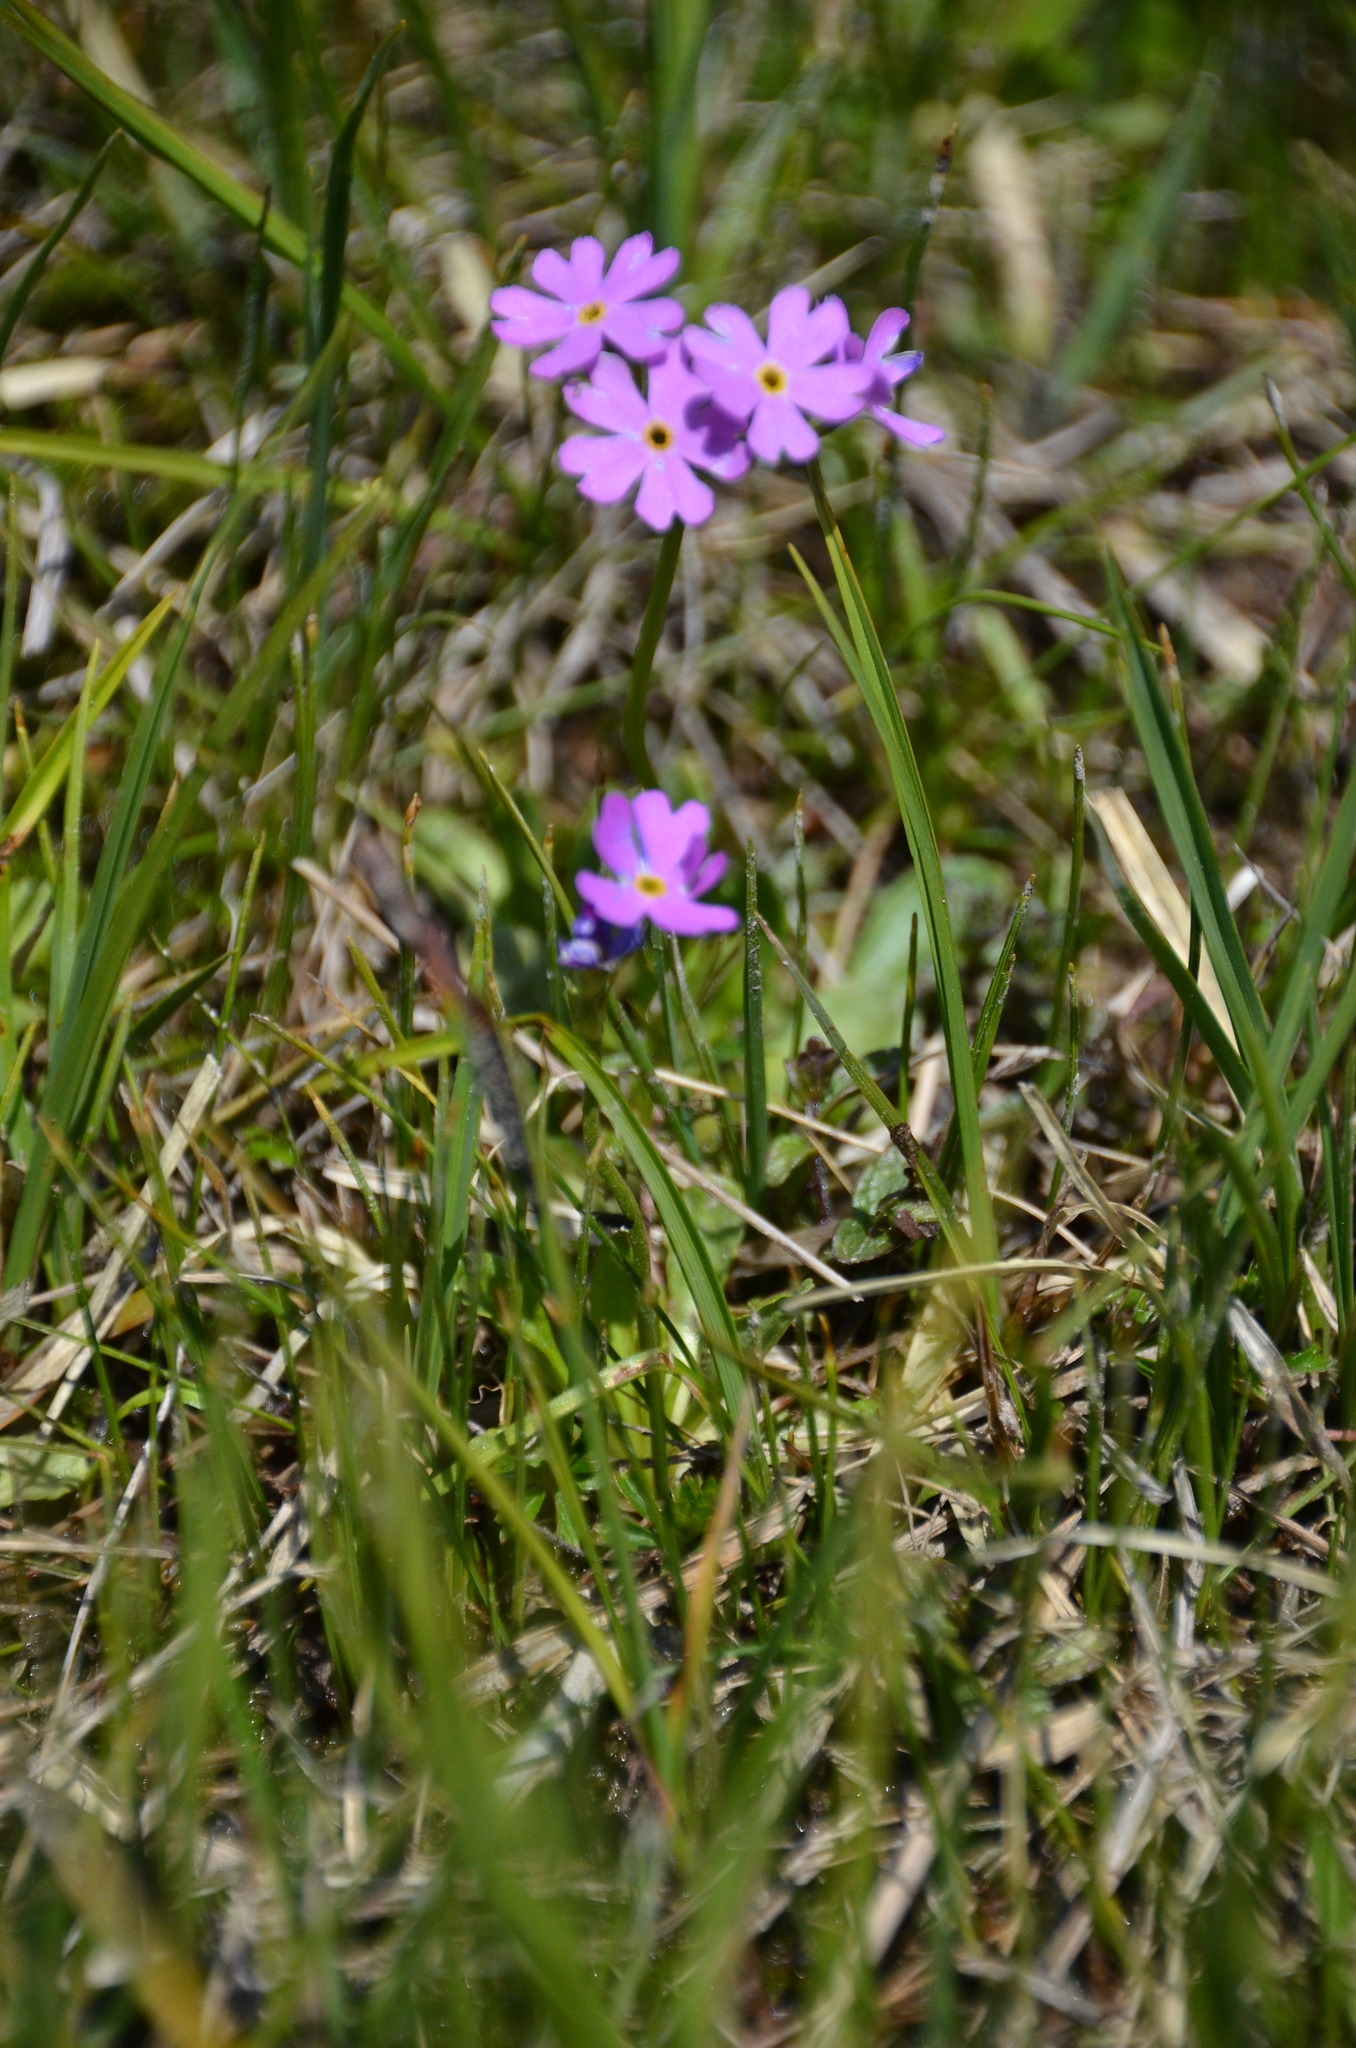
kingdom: Plantae
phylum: Tracheophyta
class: Magnoliopsida
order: Ericales
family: Primulaceae
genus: Primula
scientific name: Primula farinosa
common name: Bird's-eye primrose
